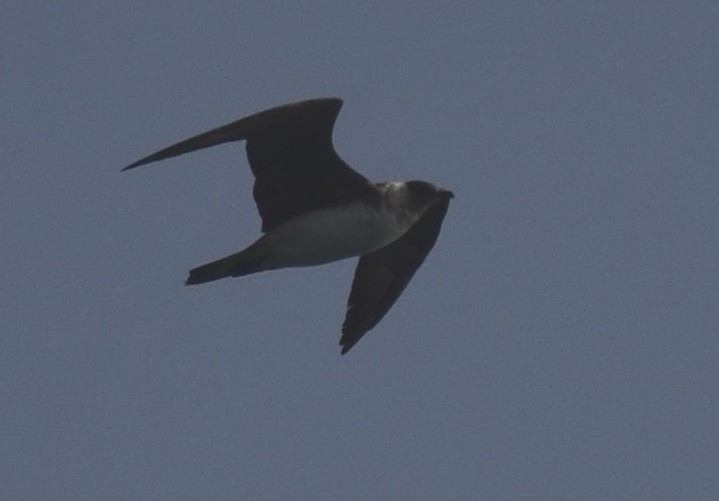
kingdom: Animalia
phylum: Chordata
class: Aves
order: Charadriiformes
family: Stercorariidae
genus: Stercorarius
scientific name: Stercorarius parasiticus
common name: Parasitic jaeger
